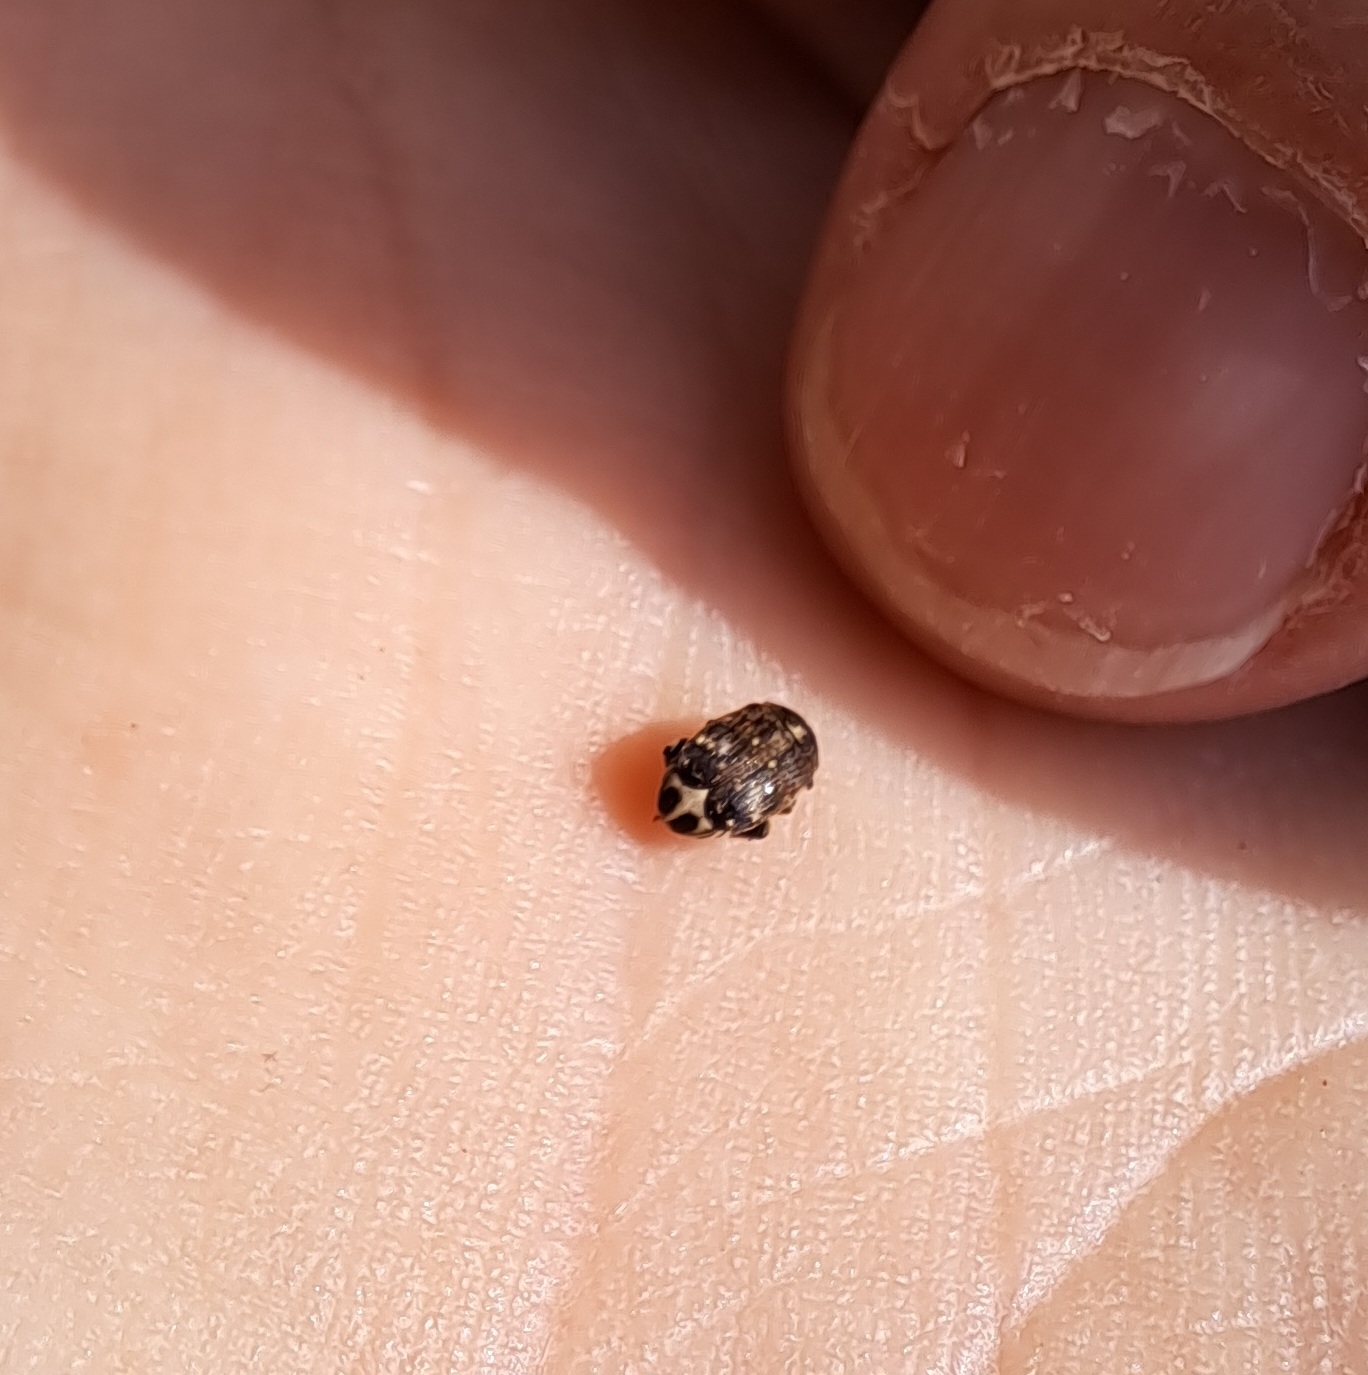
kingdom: Animalia
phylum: Arthropoda
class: Insecta
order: Coleoptera
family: Chrysomelidae
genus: Bruchus
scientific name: Bruchus pisorum
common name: Pea weevil
